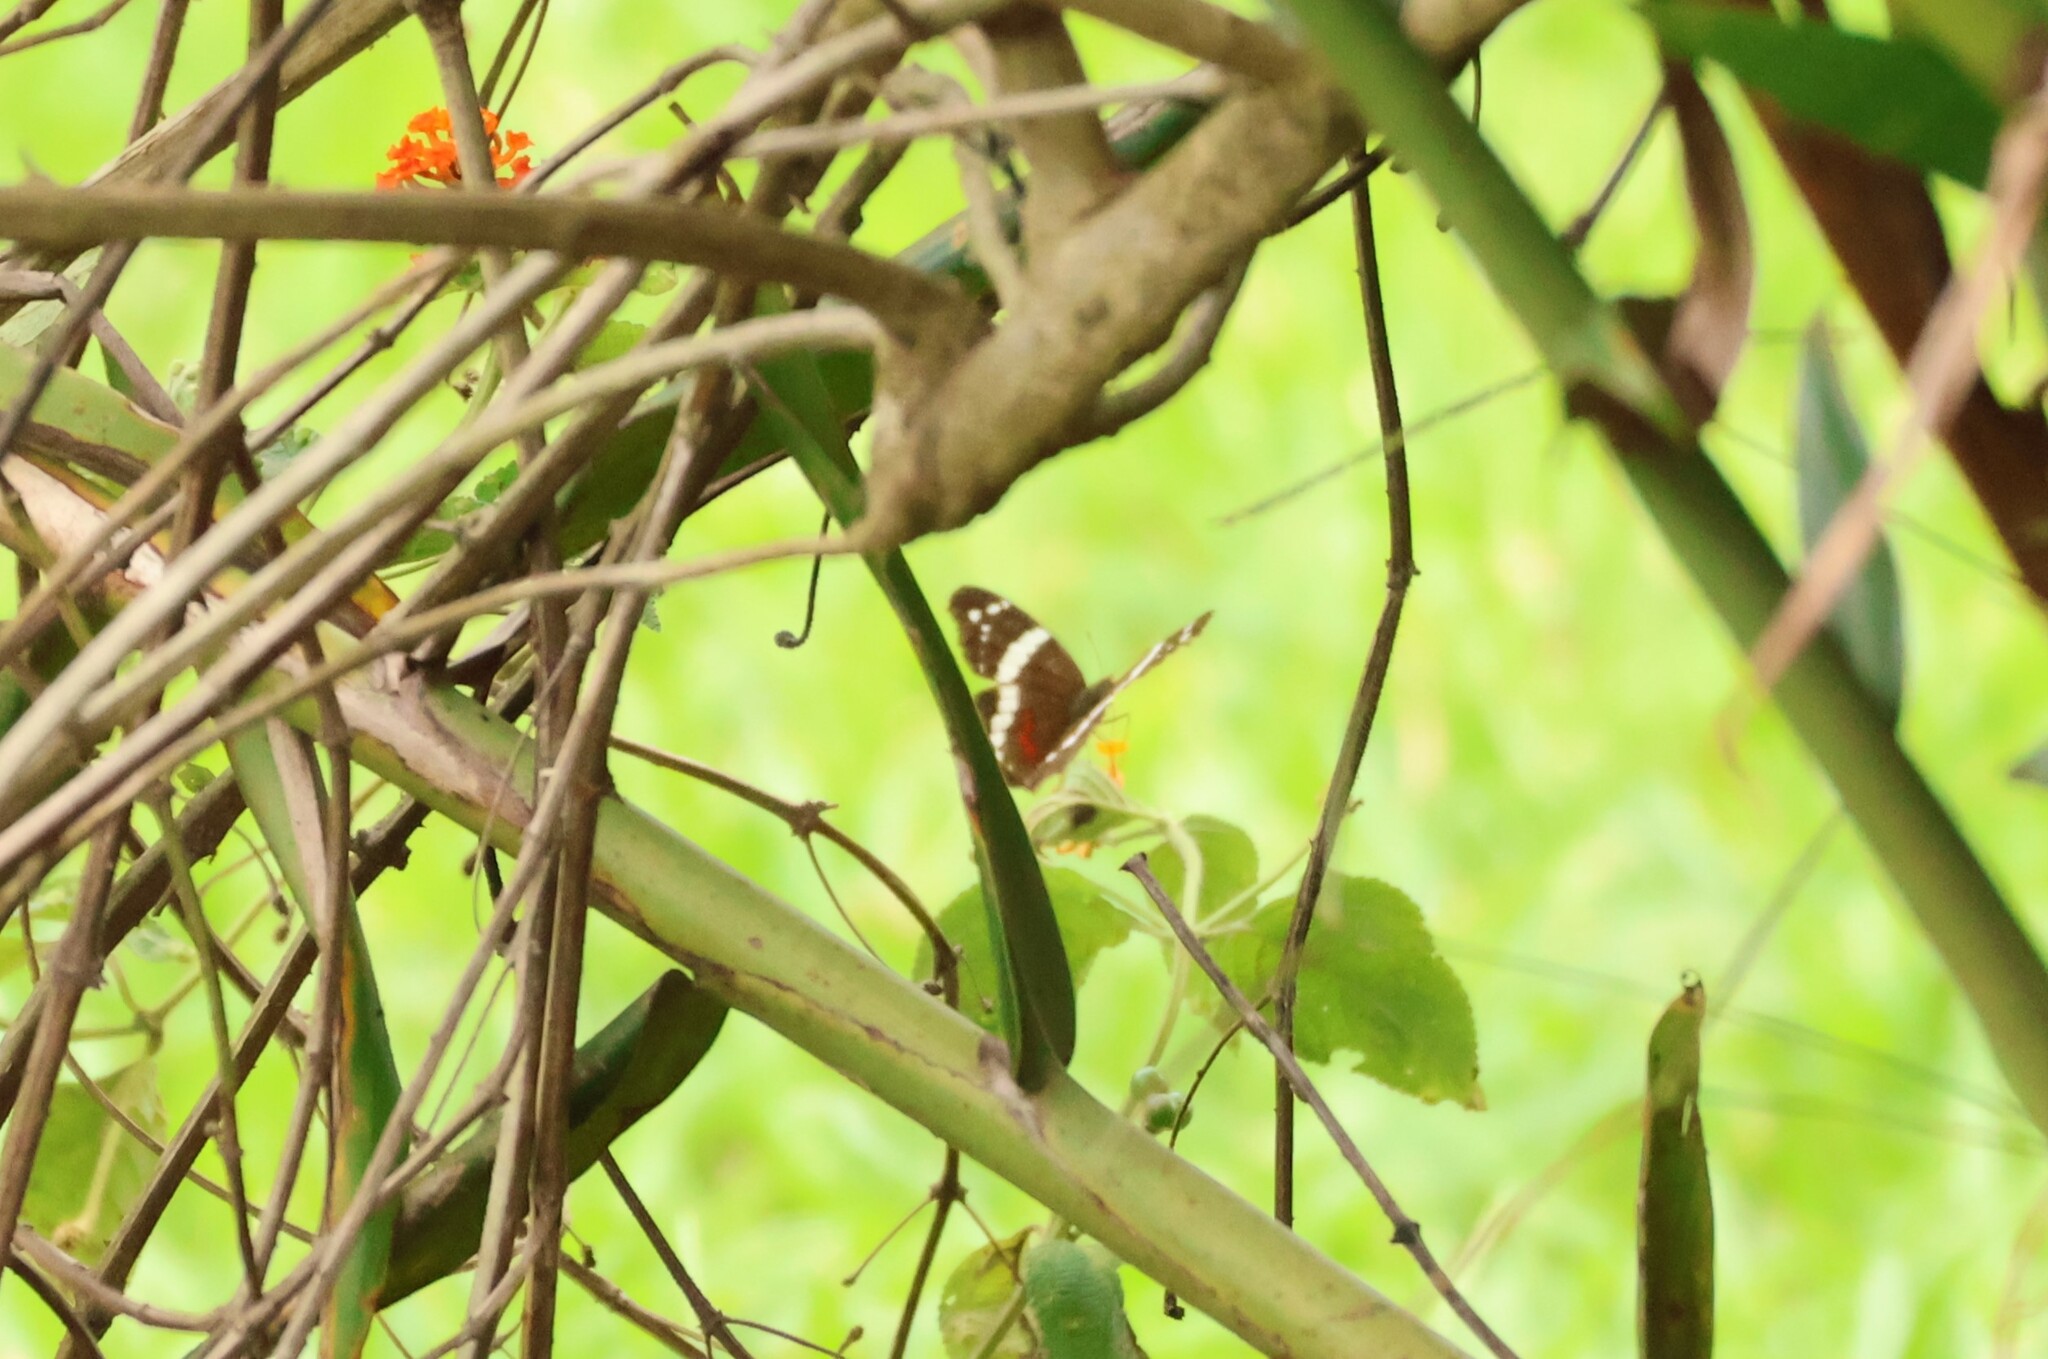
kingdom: Animalia
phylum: Arthropoda
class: Insecta
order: Lepidoptera
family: Nymphalidae
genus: Anartia
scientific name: Anartia fatima
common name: Banded peacock
